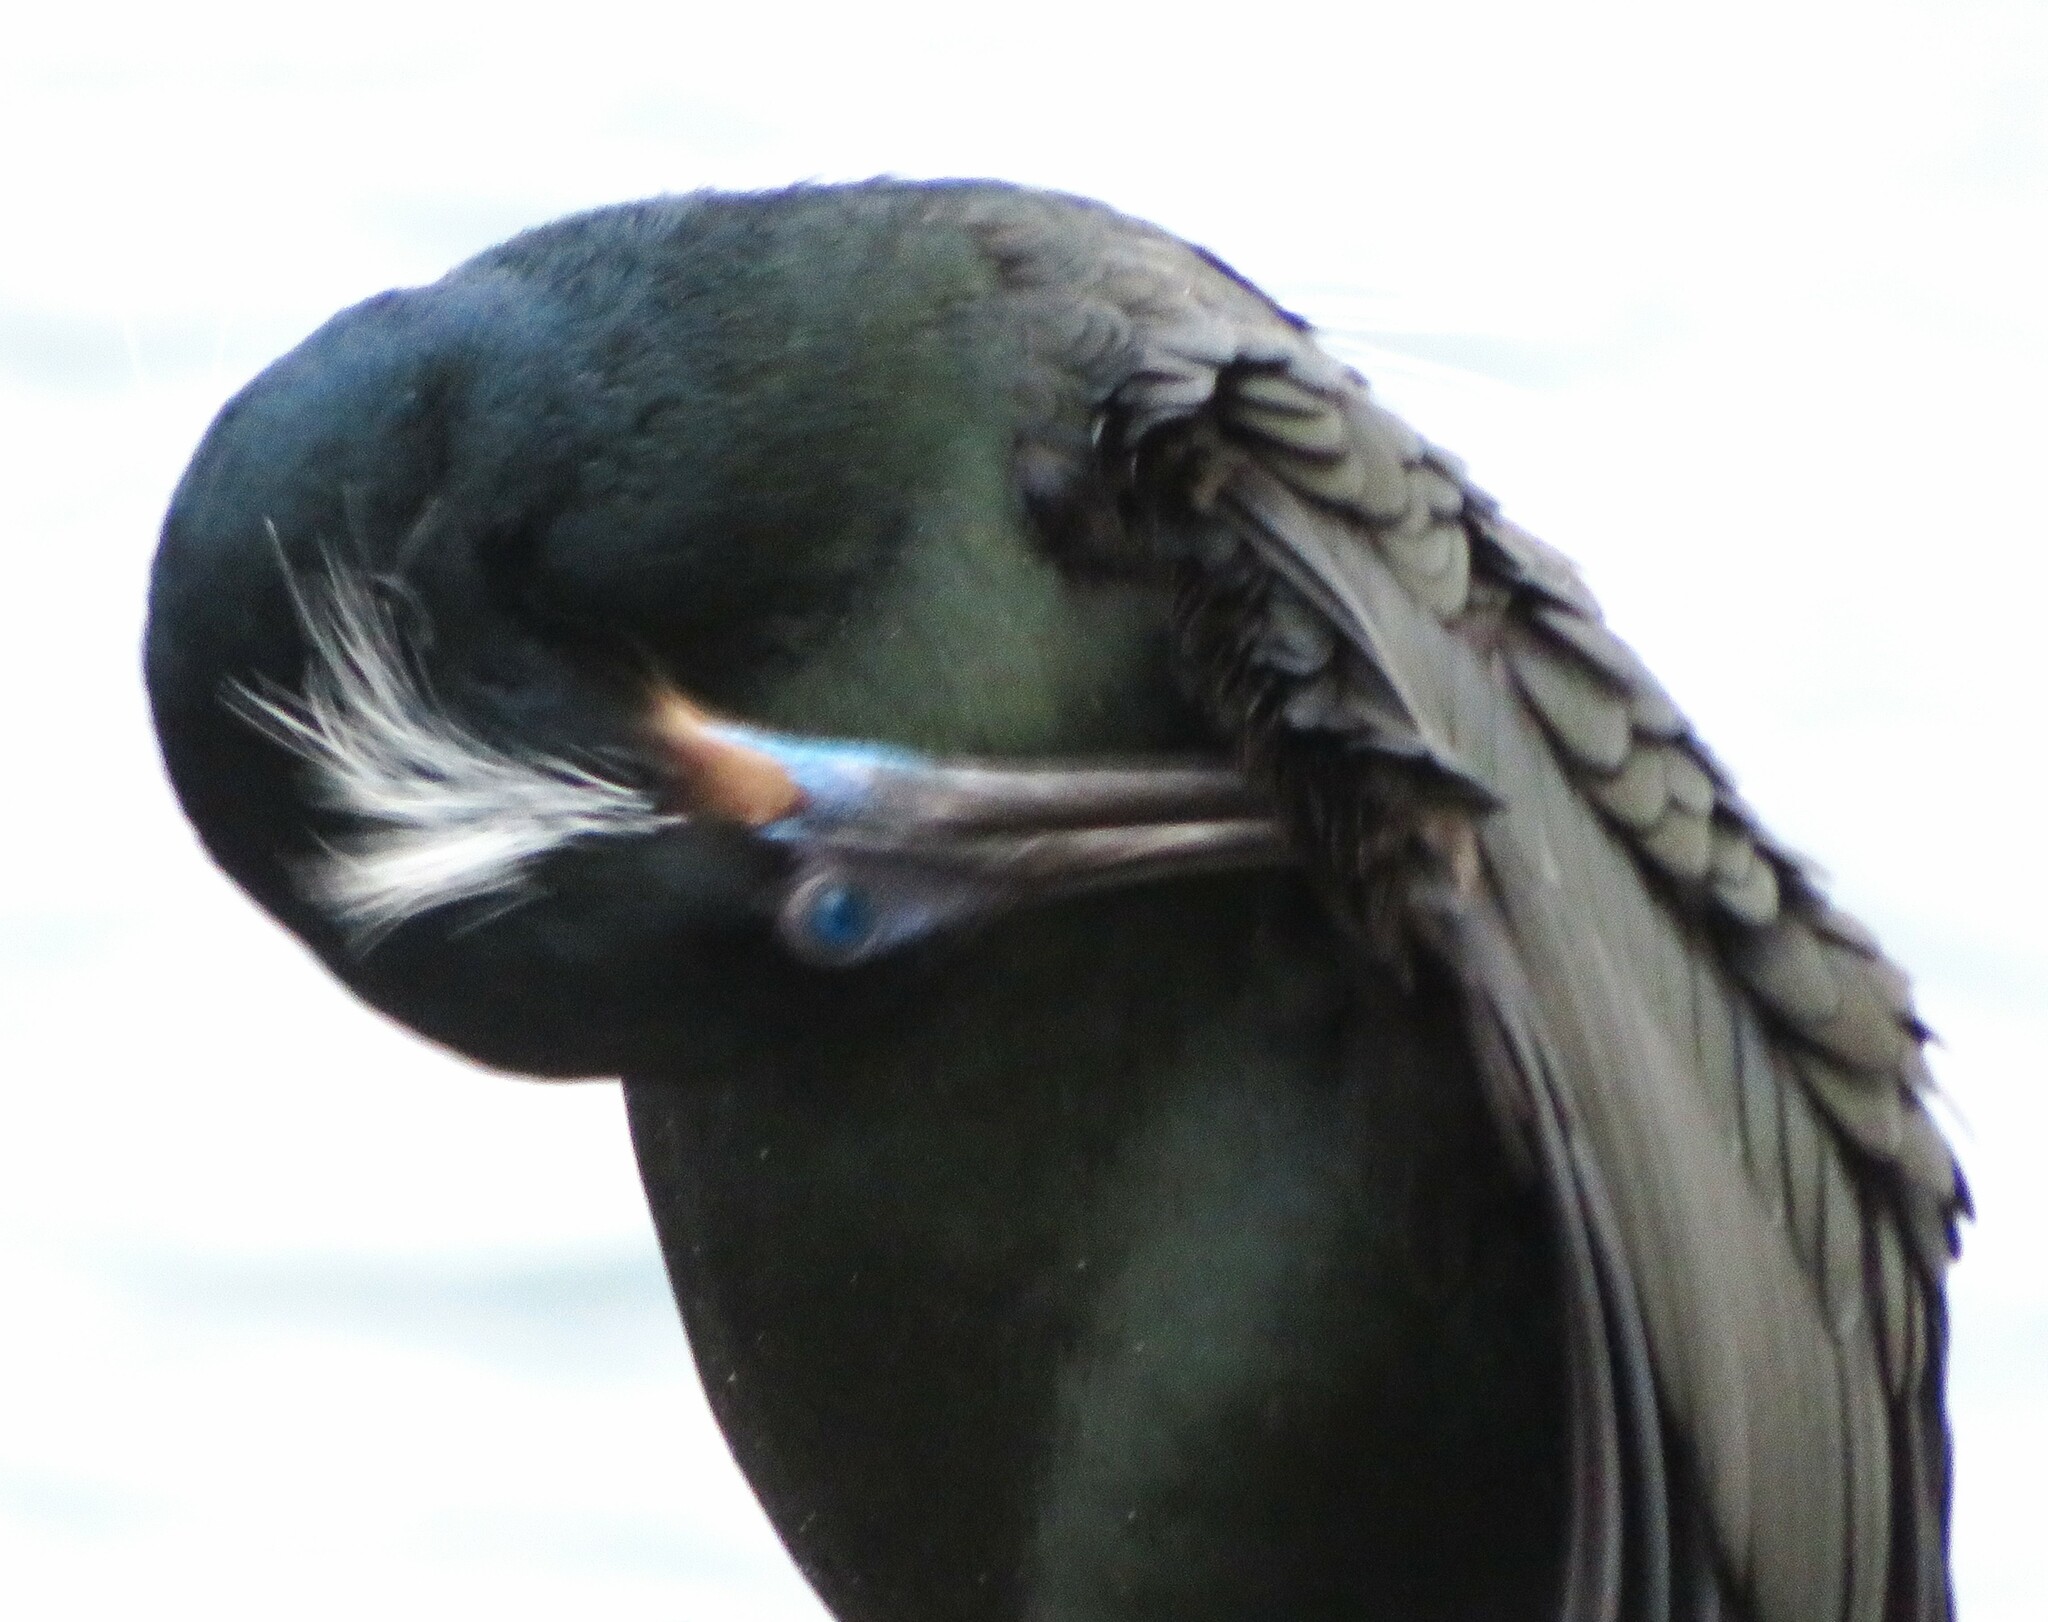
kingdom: Animalia
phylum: Chordata
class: Aves
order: Suliformes
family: Phalacrocoracidae
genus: Urile
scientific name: Urile penicillatus
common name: Brandt's cormorant
